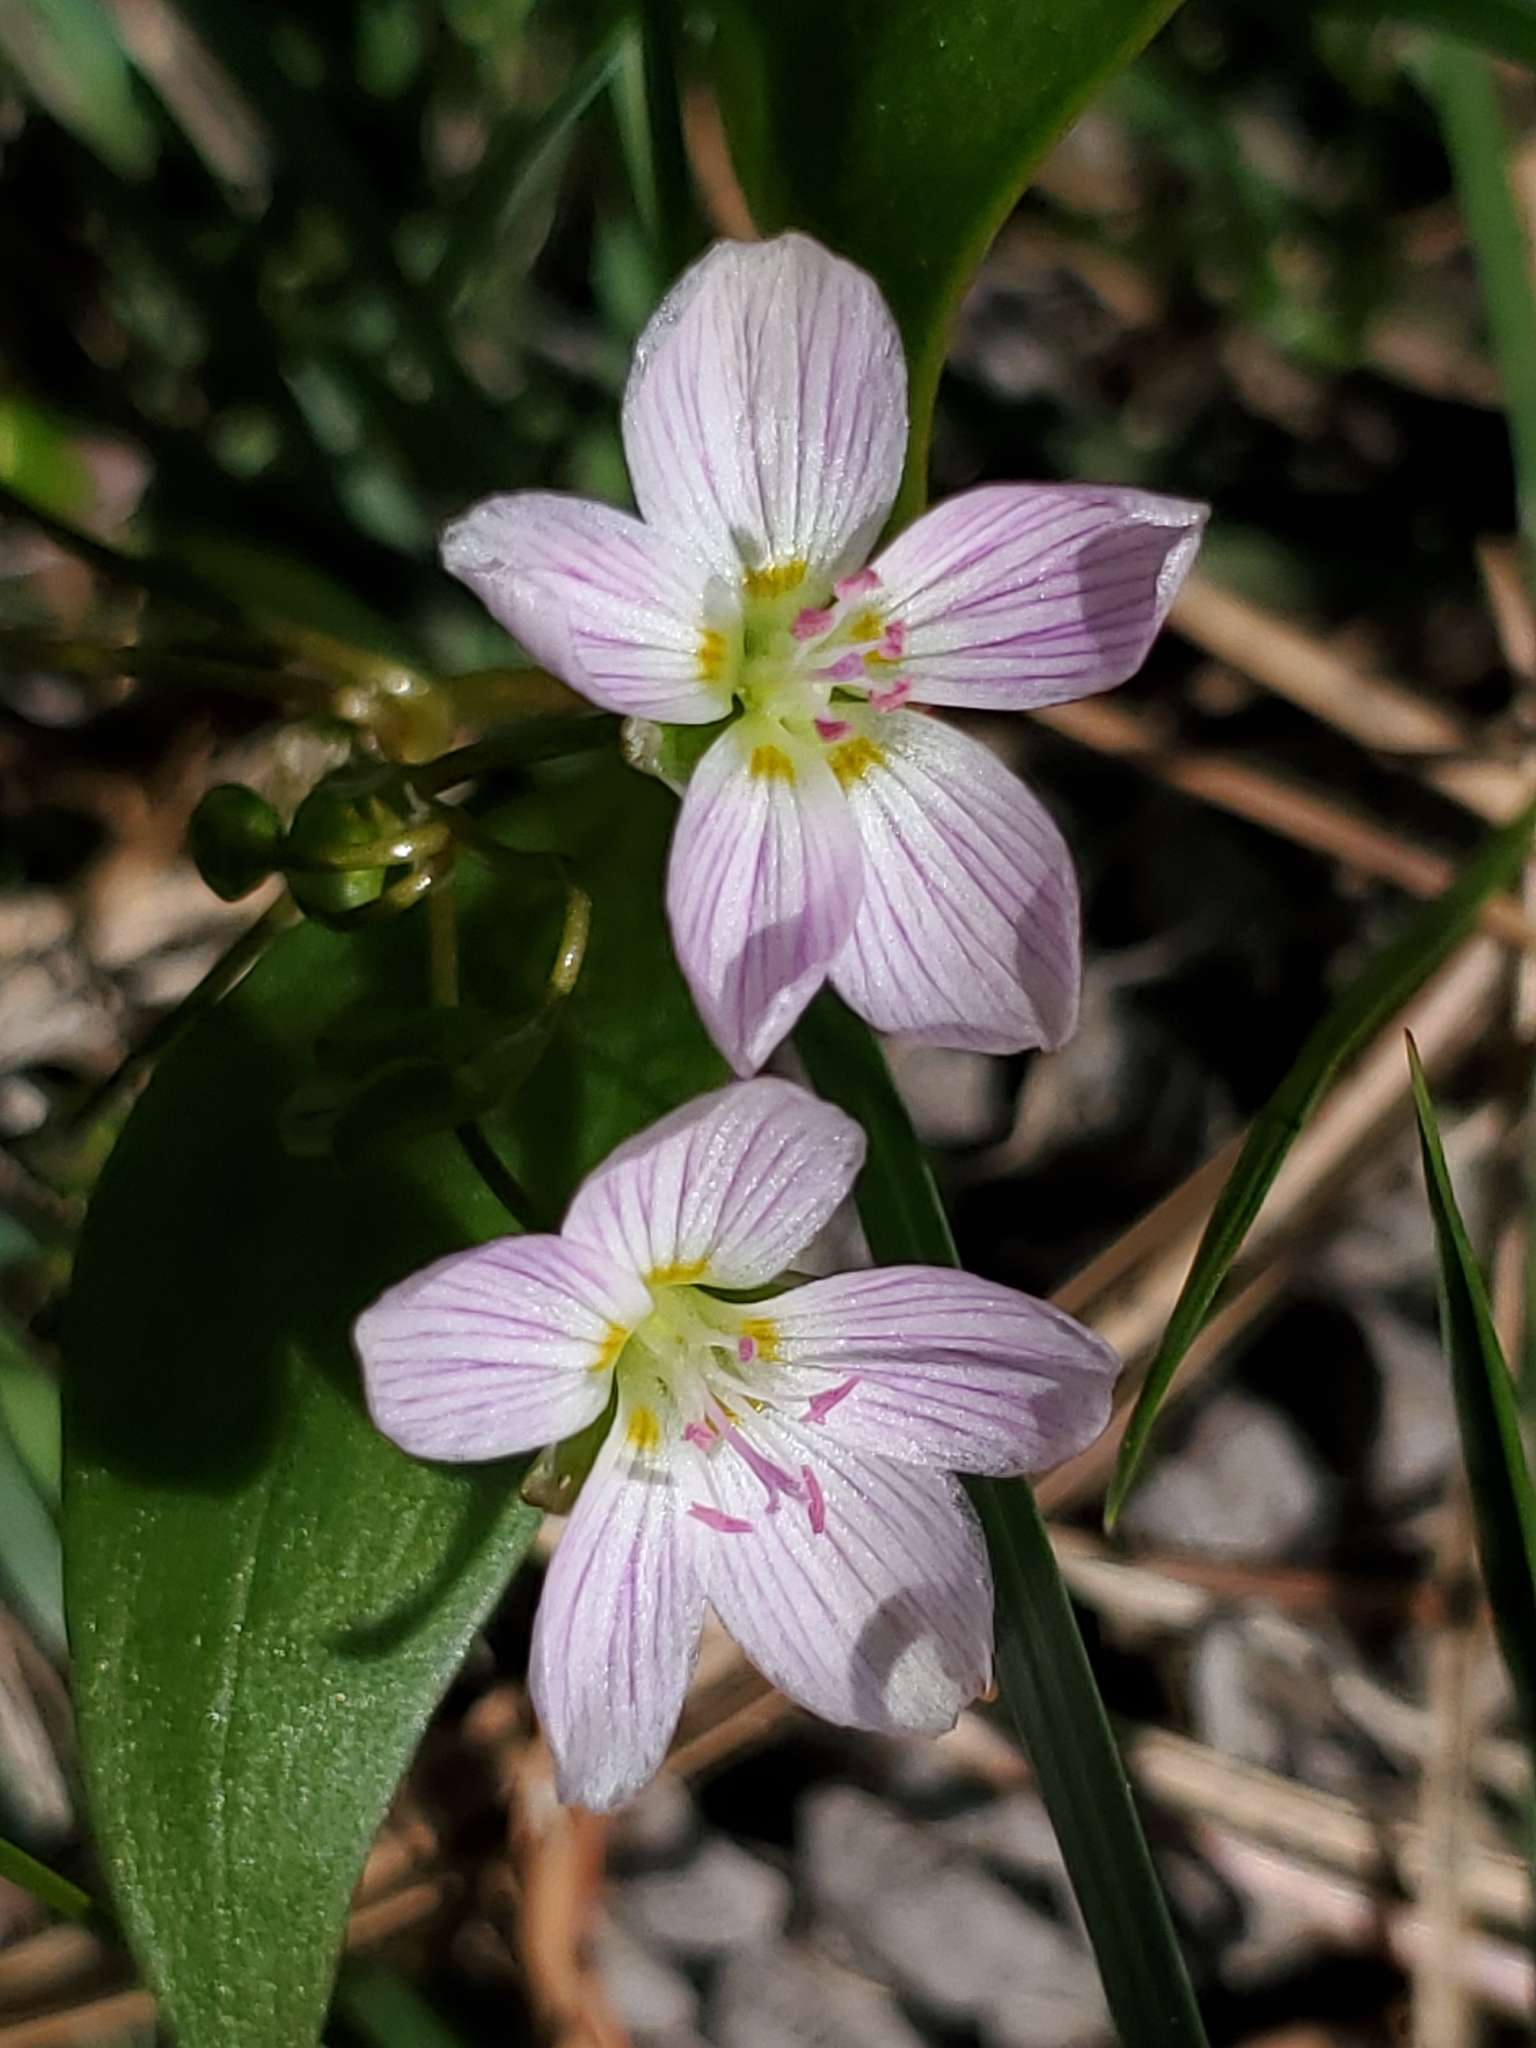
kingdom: Plantae
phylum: Tracheophyta
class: Magnoliopsida
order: Caryophyllales
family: Montiaceae
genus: Claytonia
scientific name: Claytonia lanceolata
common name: Western spring-beauty
